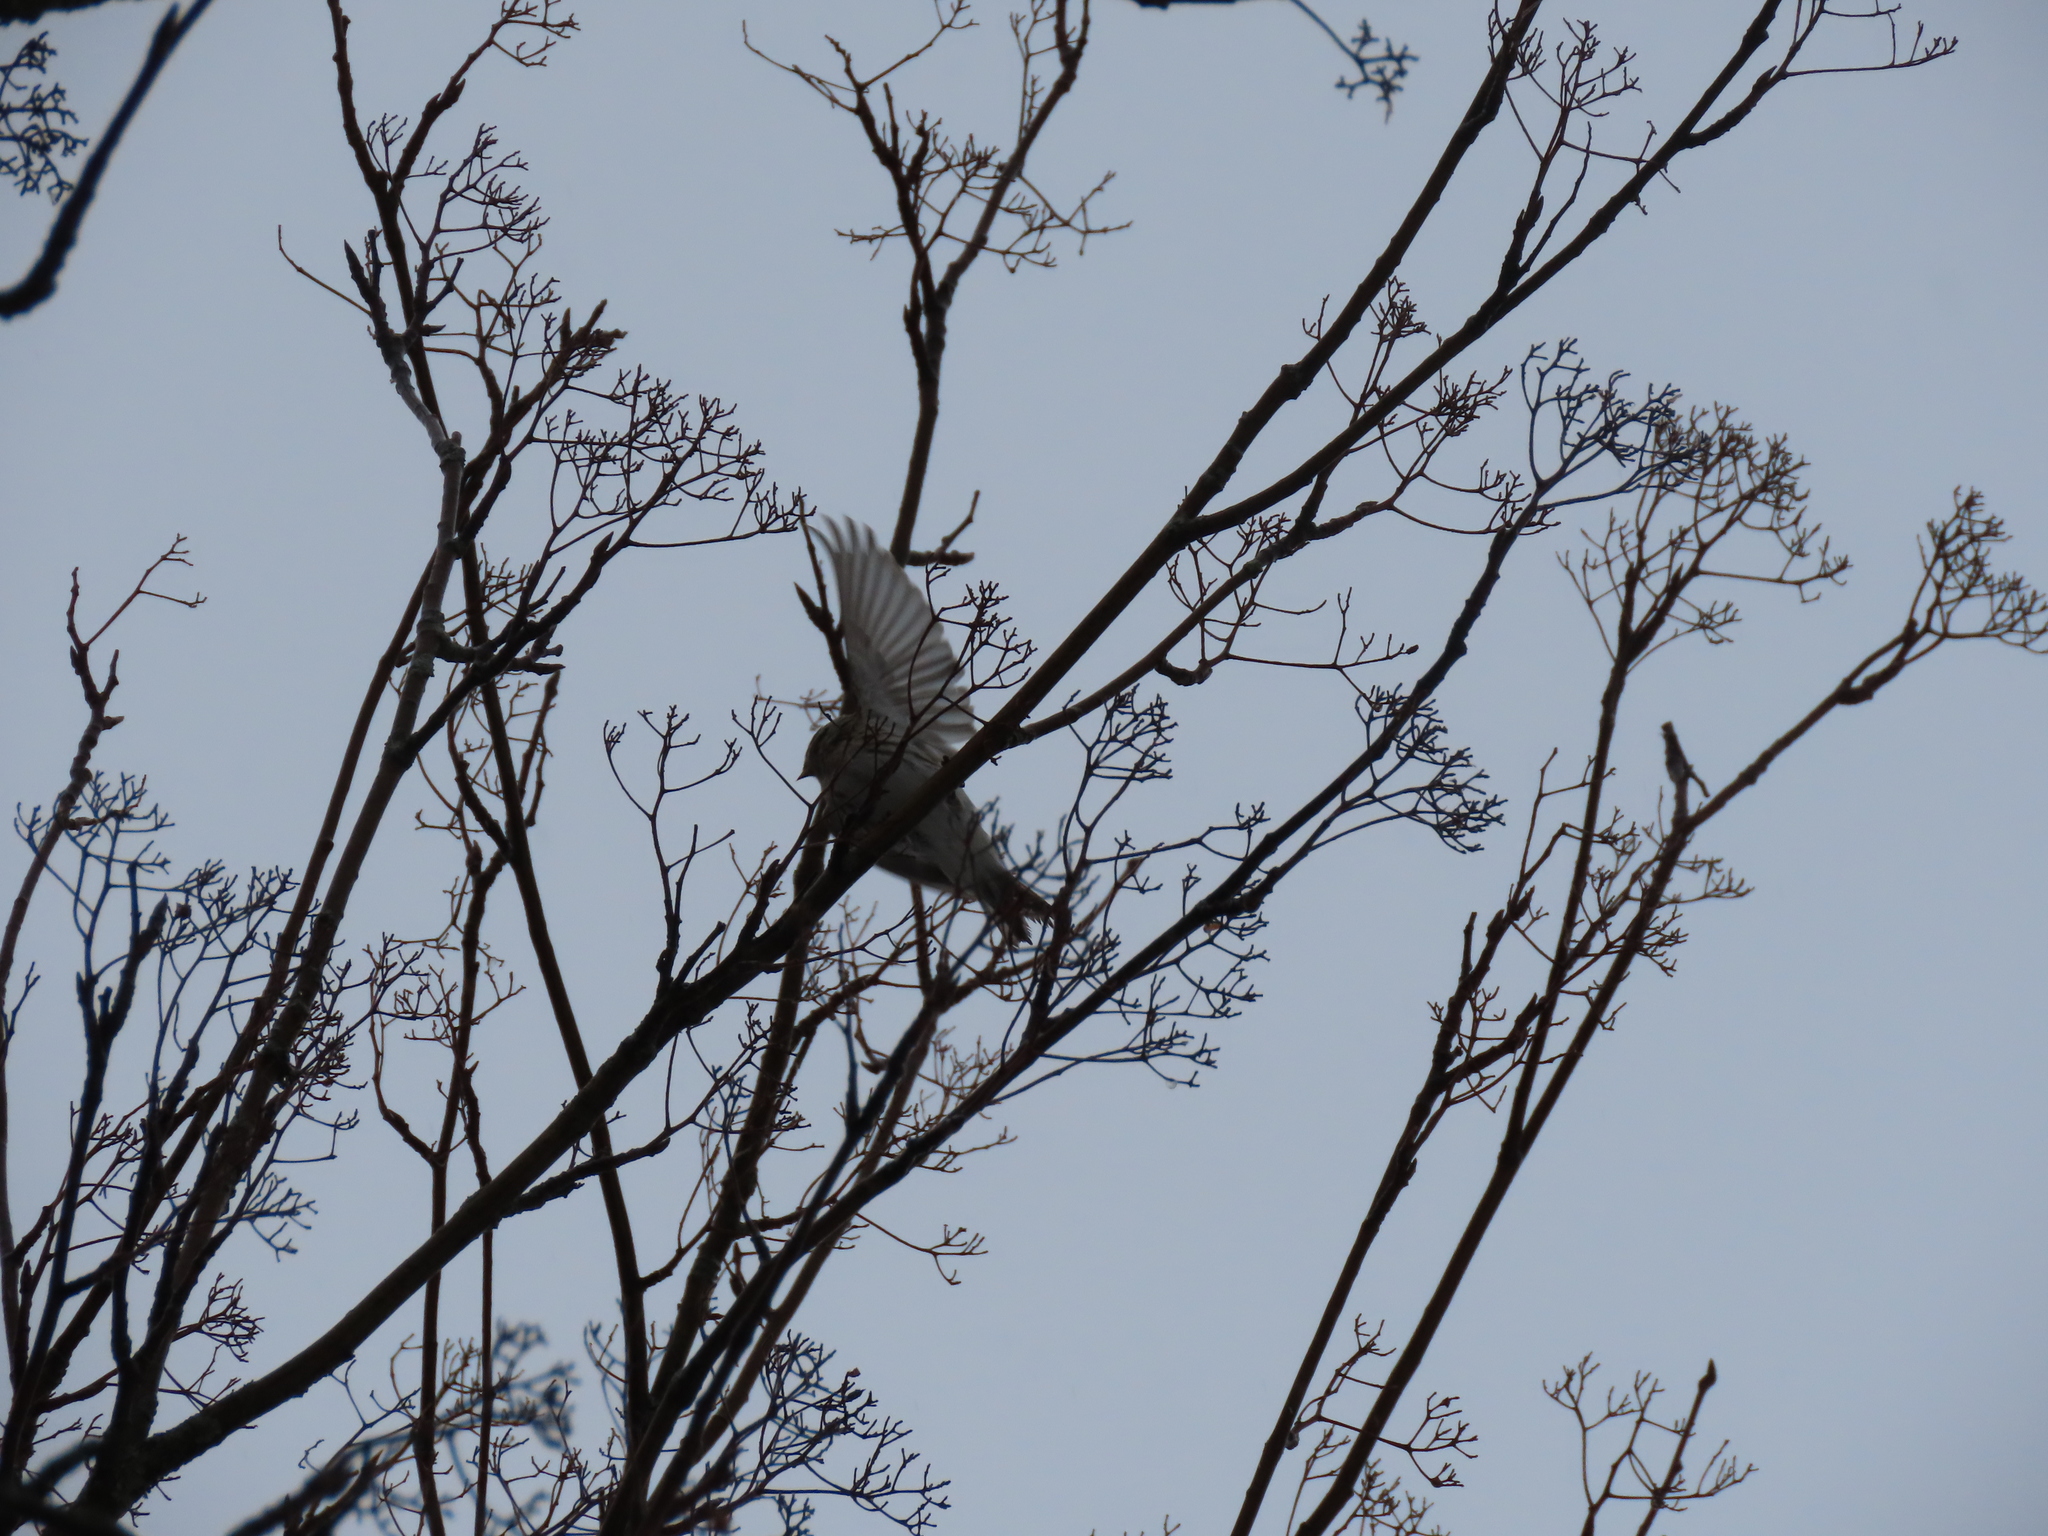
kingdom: Animalia
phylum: Chordata
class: Aves
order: Passeriformes
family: Fringillidae
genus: Acanthis
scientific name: Acanthis flammea
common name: Common redpoll
